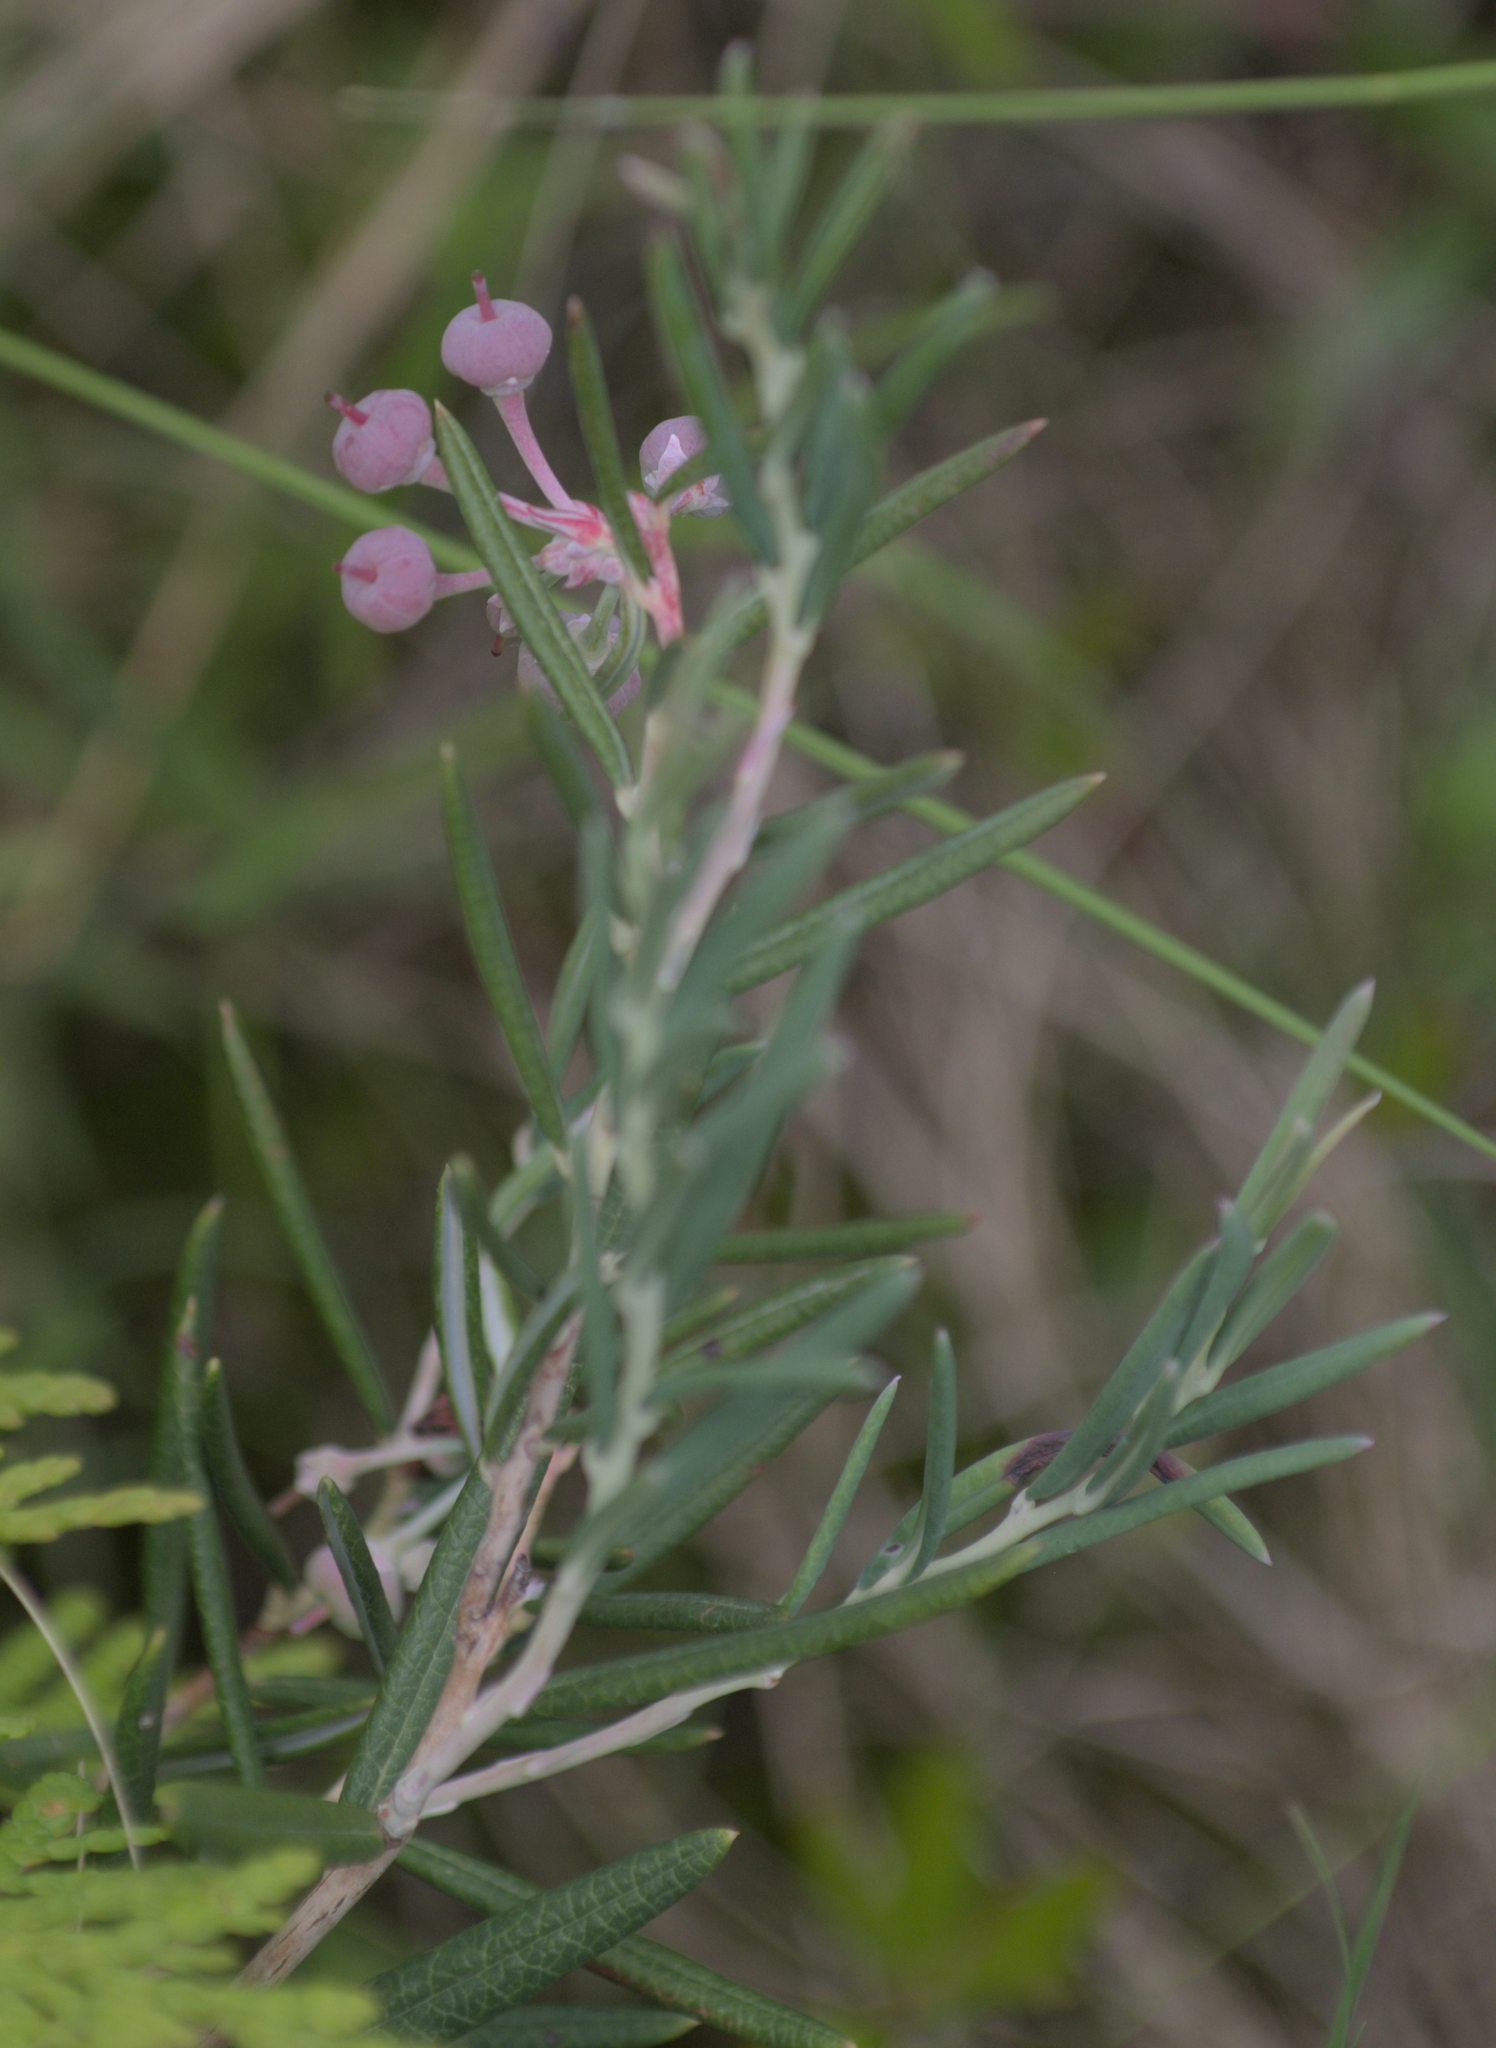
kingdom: Plantae
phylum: Tracheophyta
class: Magnoliopsida
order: Ericales
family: Ericaceae
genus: Andromeda
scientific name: Andromeda polifolia
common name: Bog-rosemary
